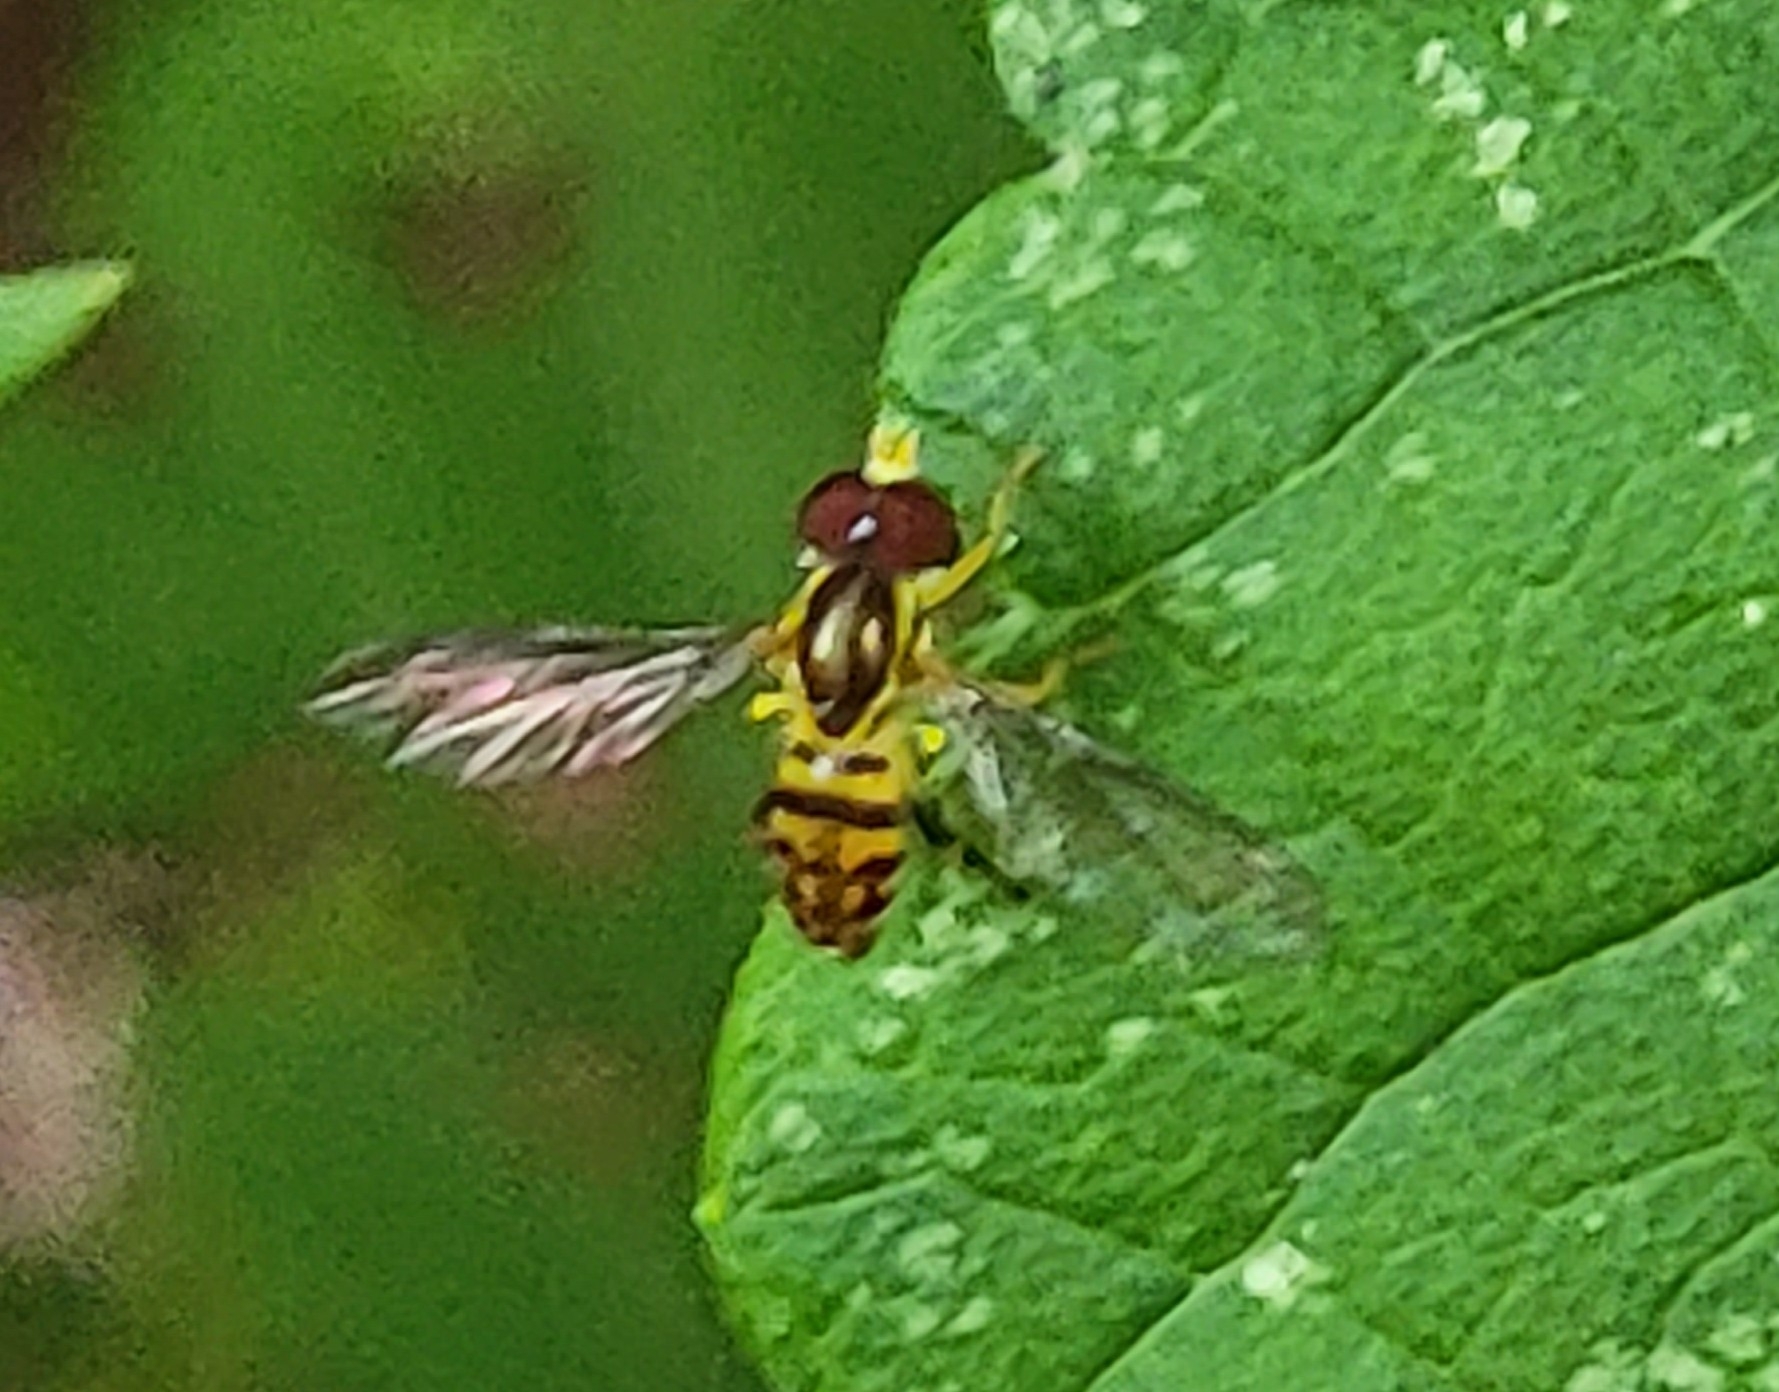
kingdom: Animalia
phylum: Arthropoda
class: Insecta
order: Diptera
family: Syrphidae
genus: Toxomerus
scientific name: Toxomerus geminatus
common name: Eastern calligrapher
